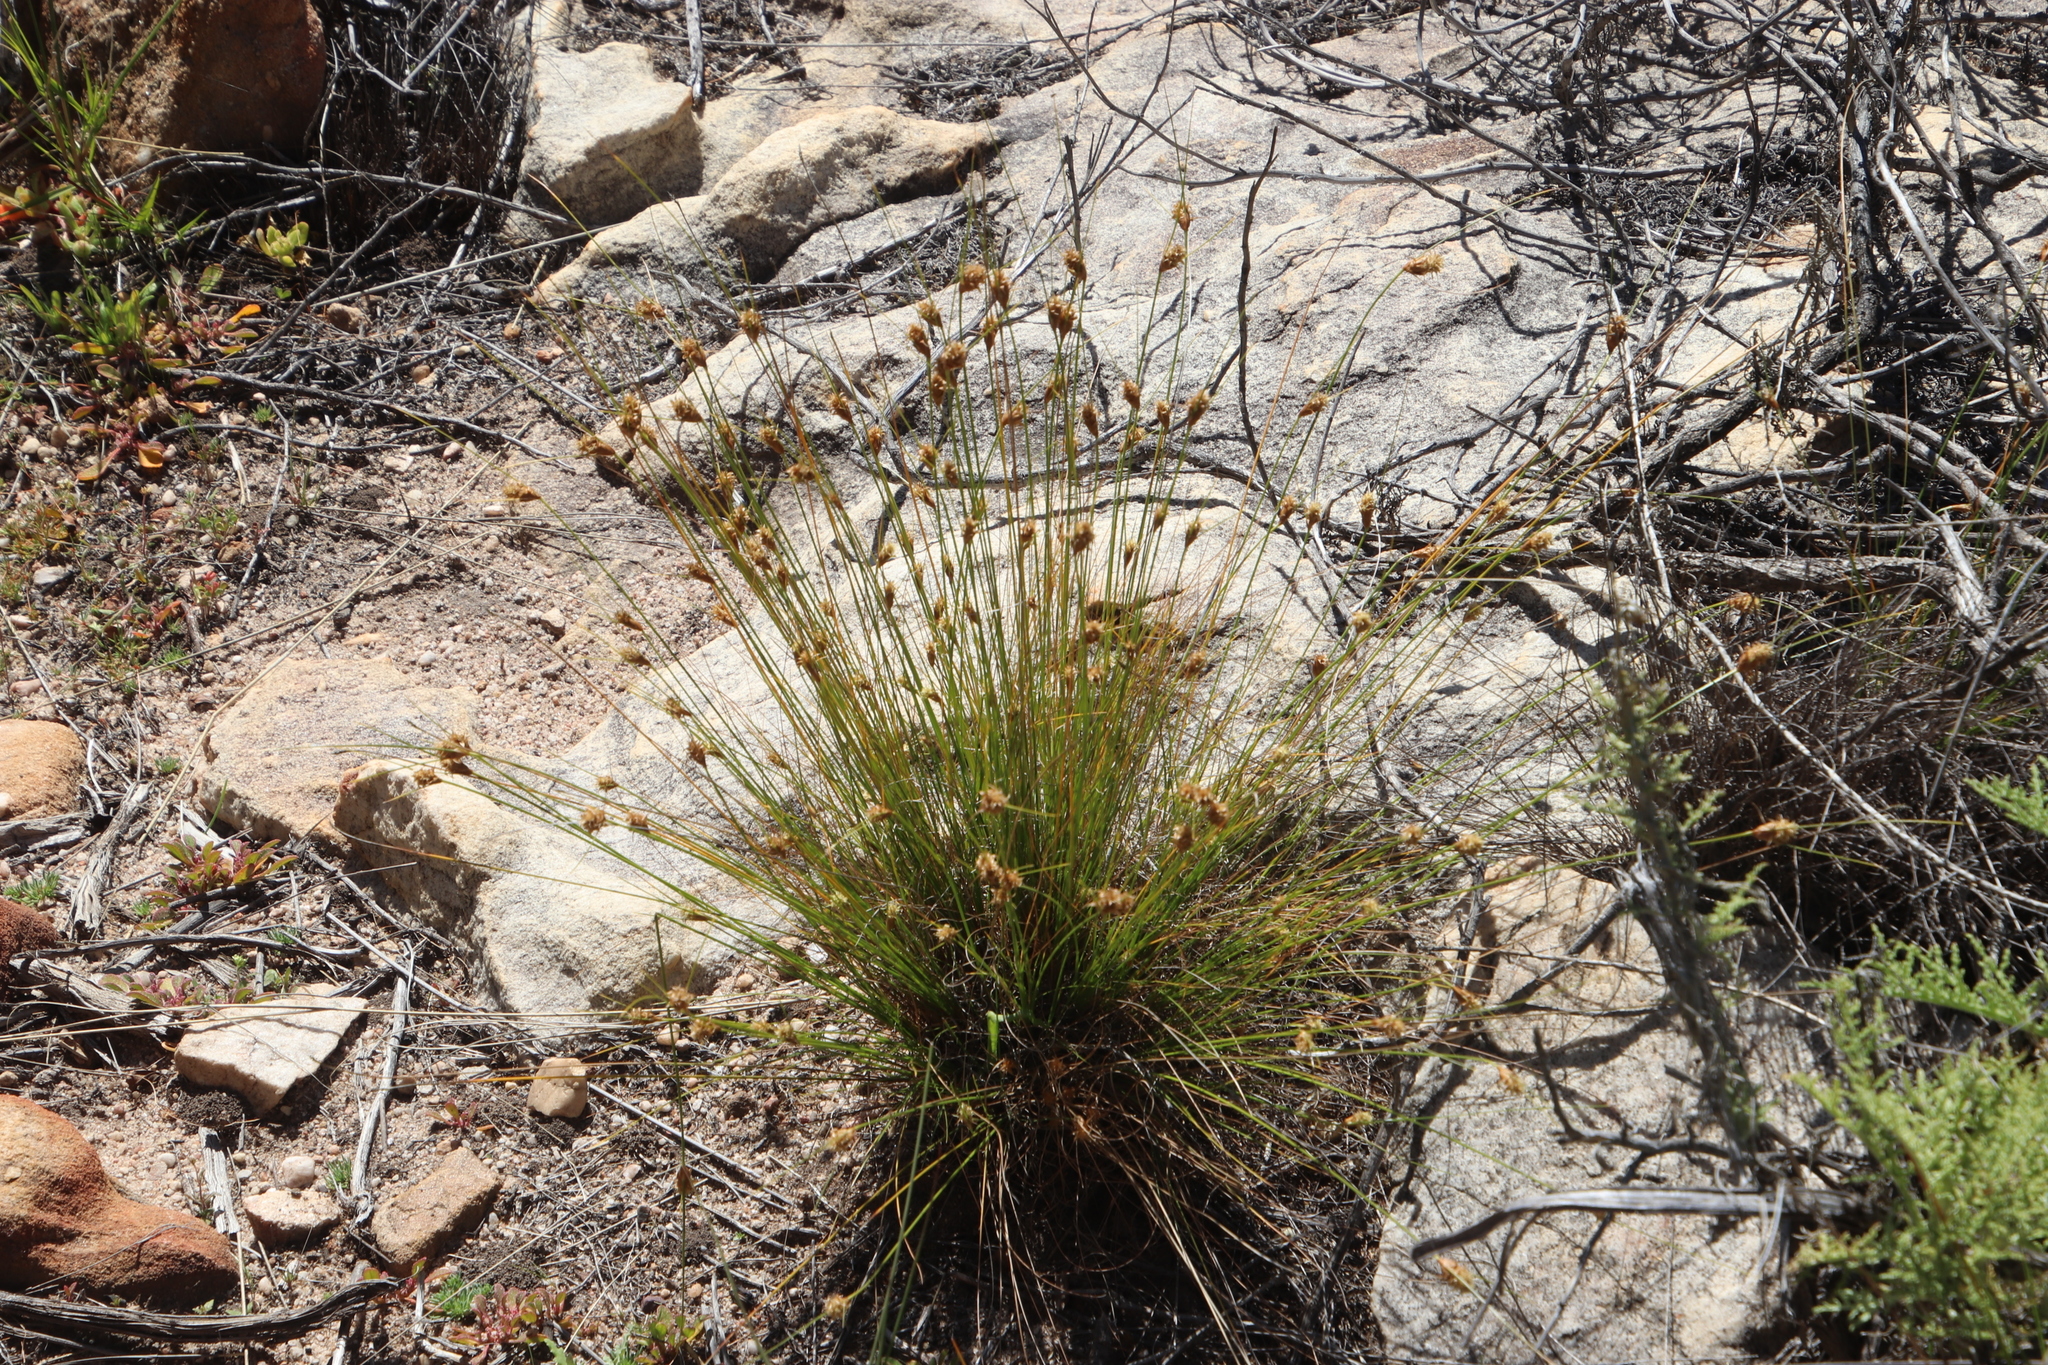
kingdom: Plantae
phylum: Tracheophyta
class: Liliopsida
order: Poales
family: Cyperaceae
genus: Ficinia
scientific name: Ficinia nigrescens
